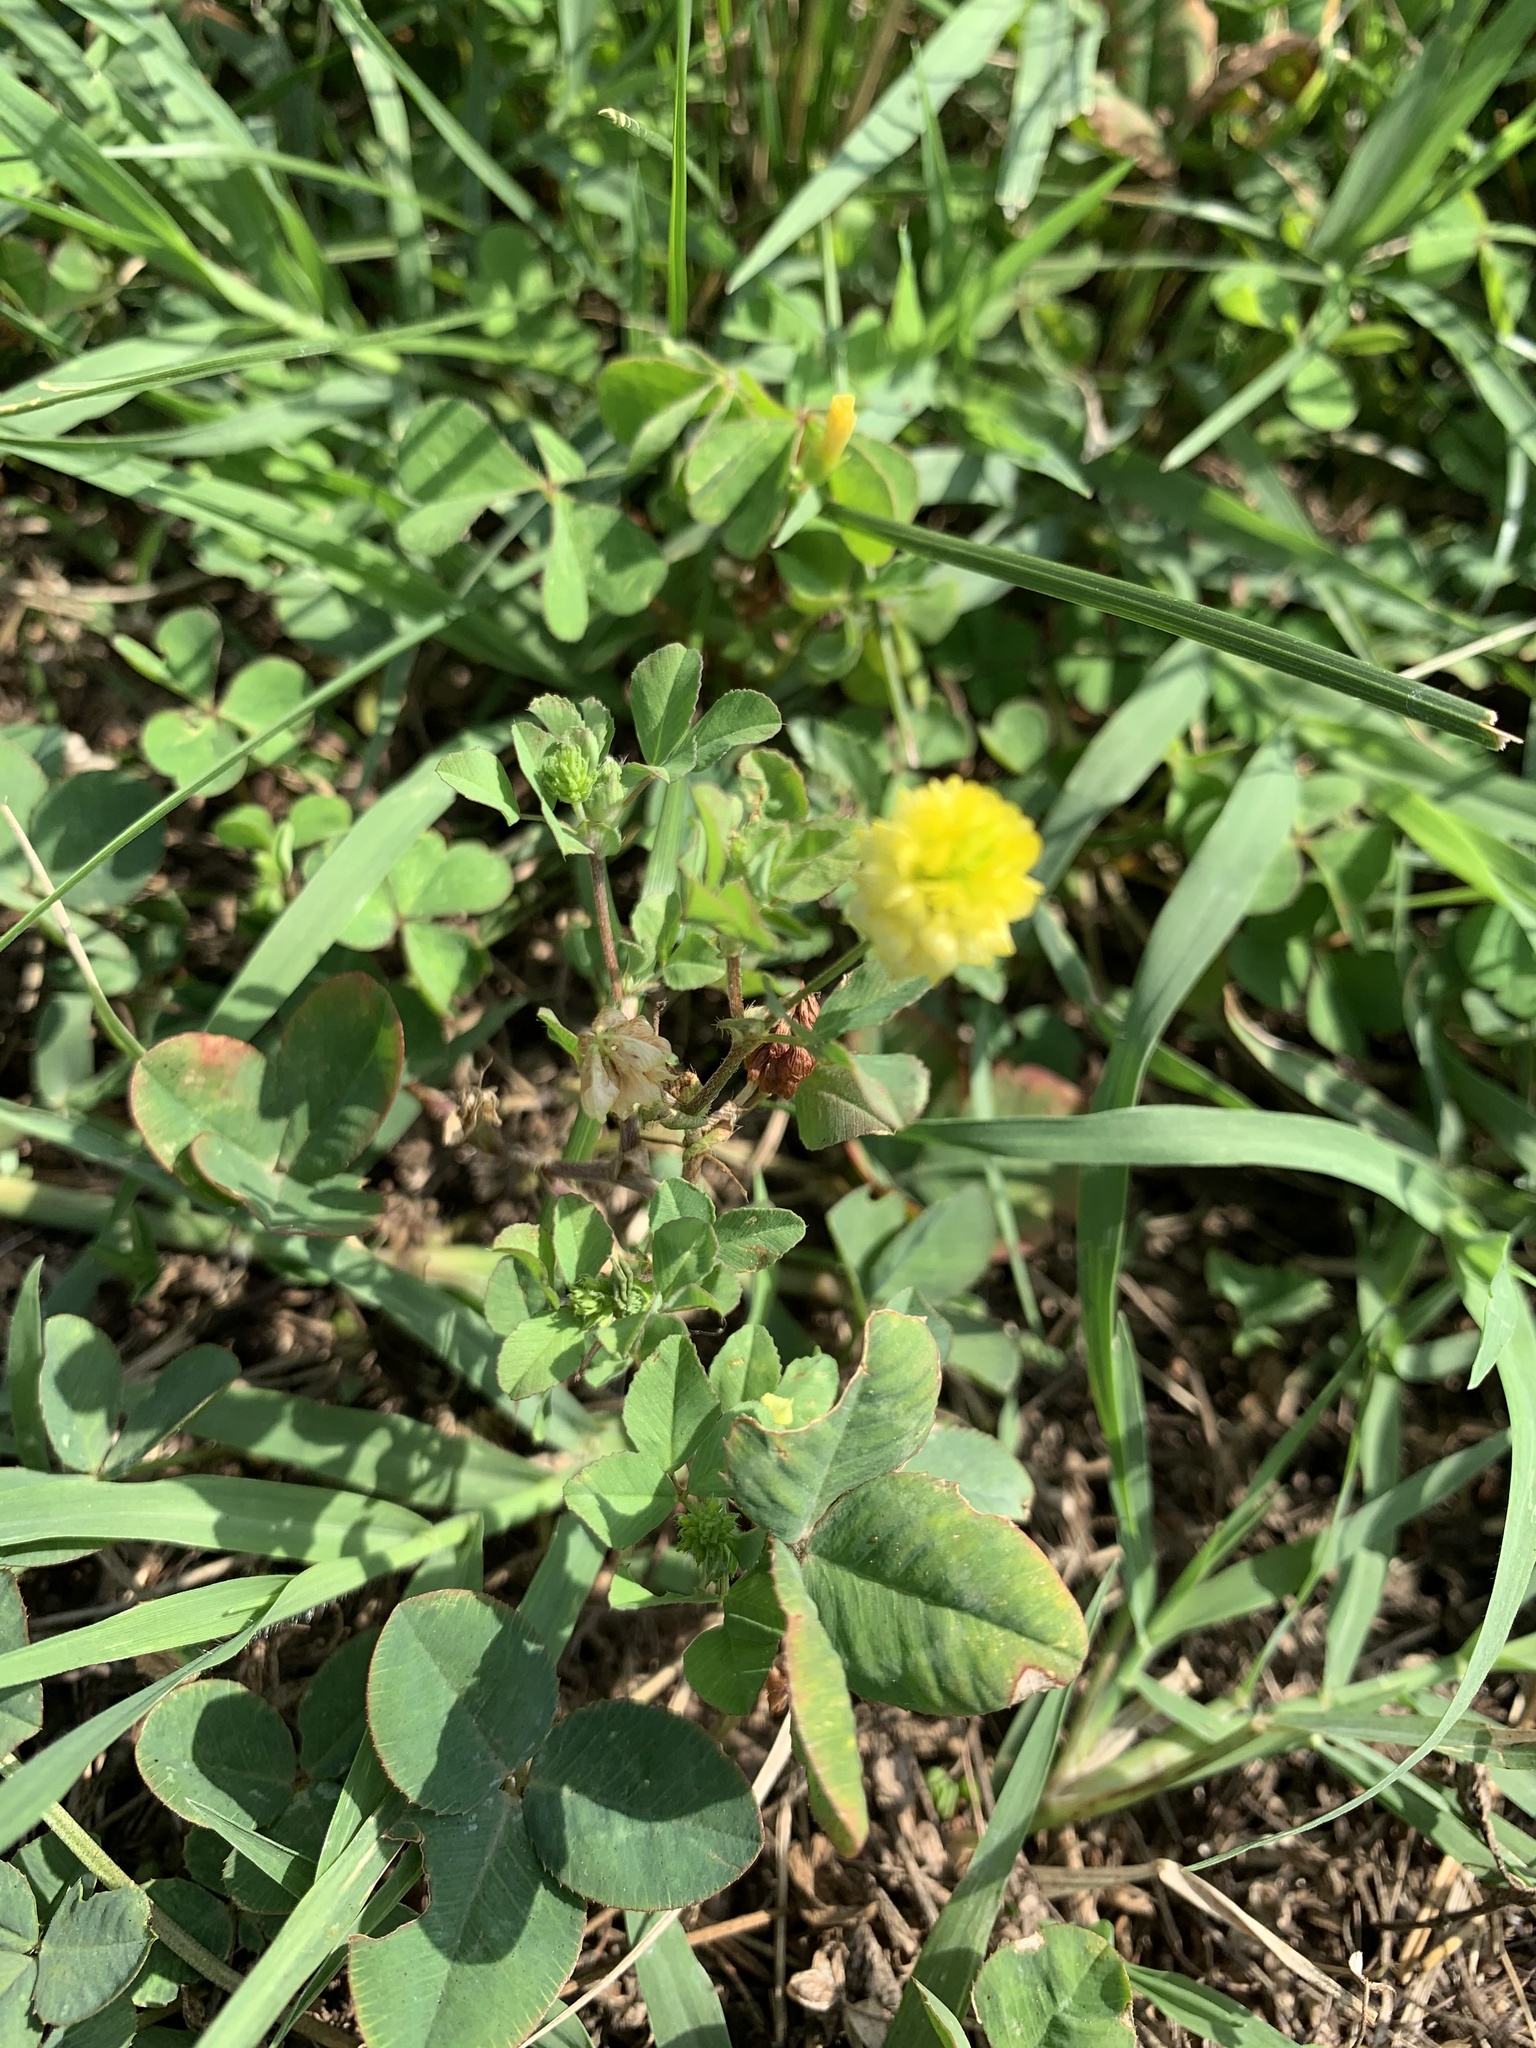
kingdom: Plantae
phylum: Tracheophyta
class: Magnoliopsida
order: Fabales
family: Fabaceae
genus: Trifolium
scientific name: Trifolium campestre
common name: Field clover
